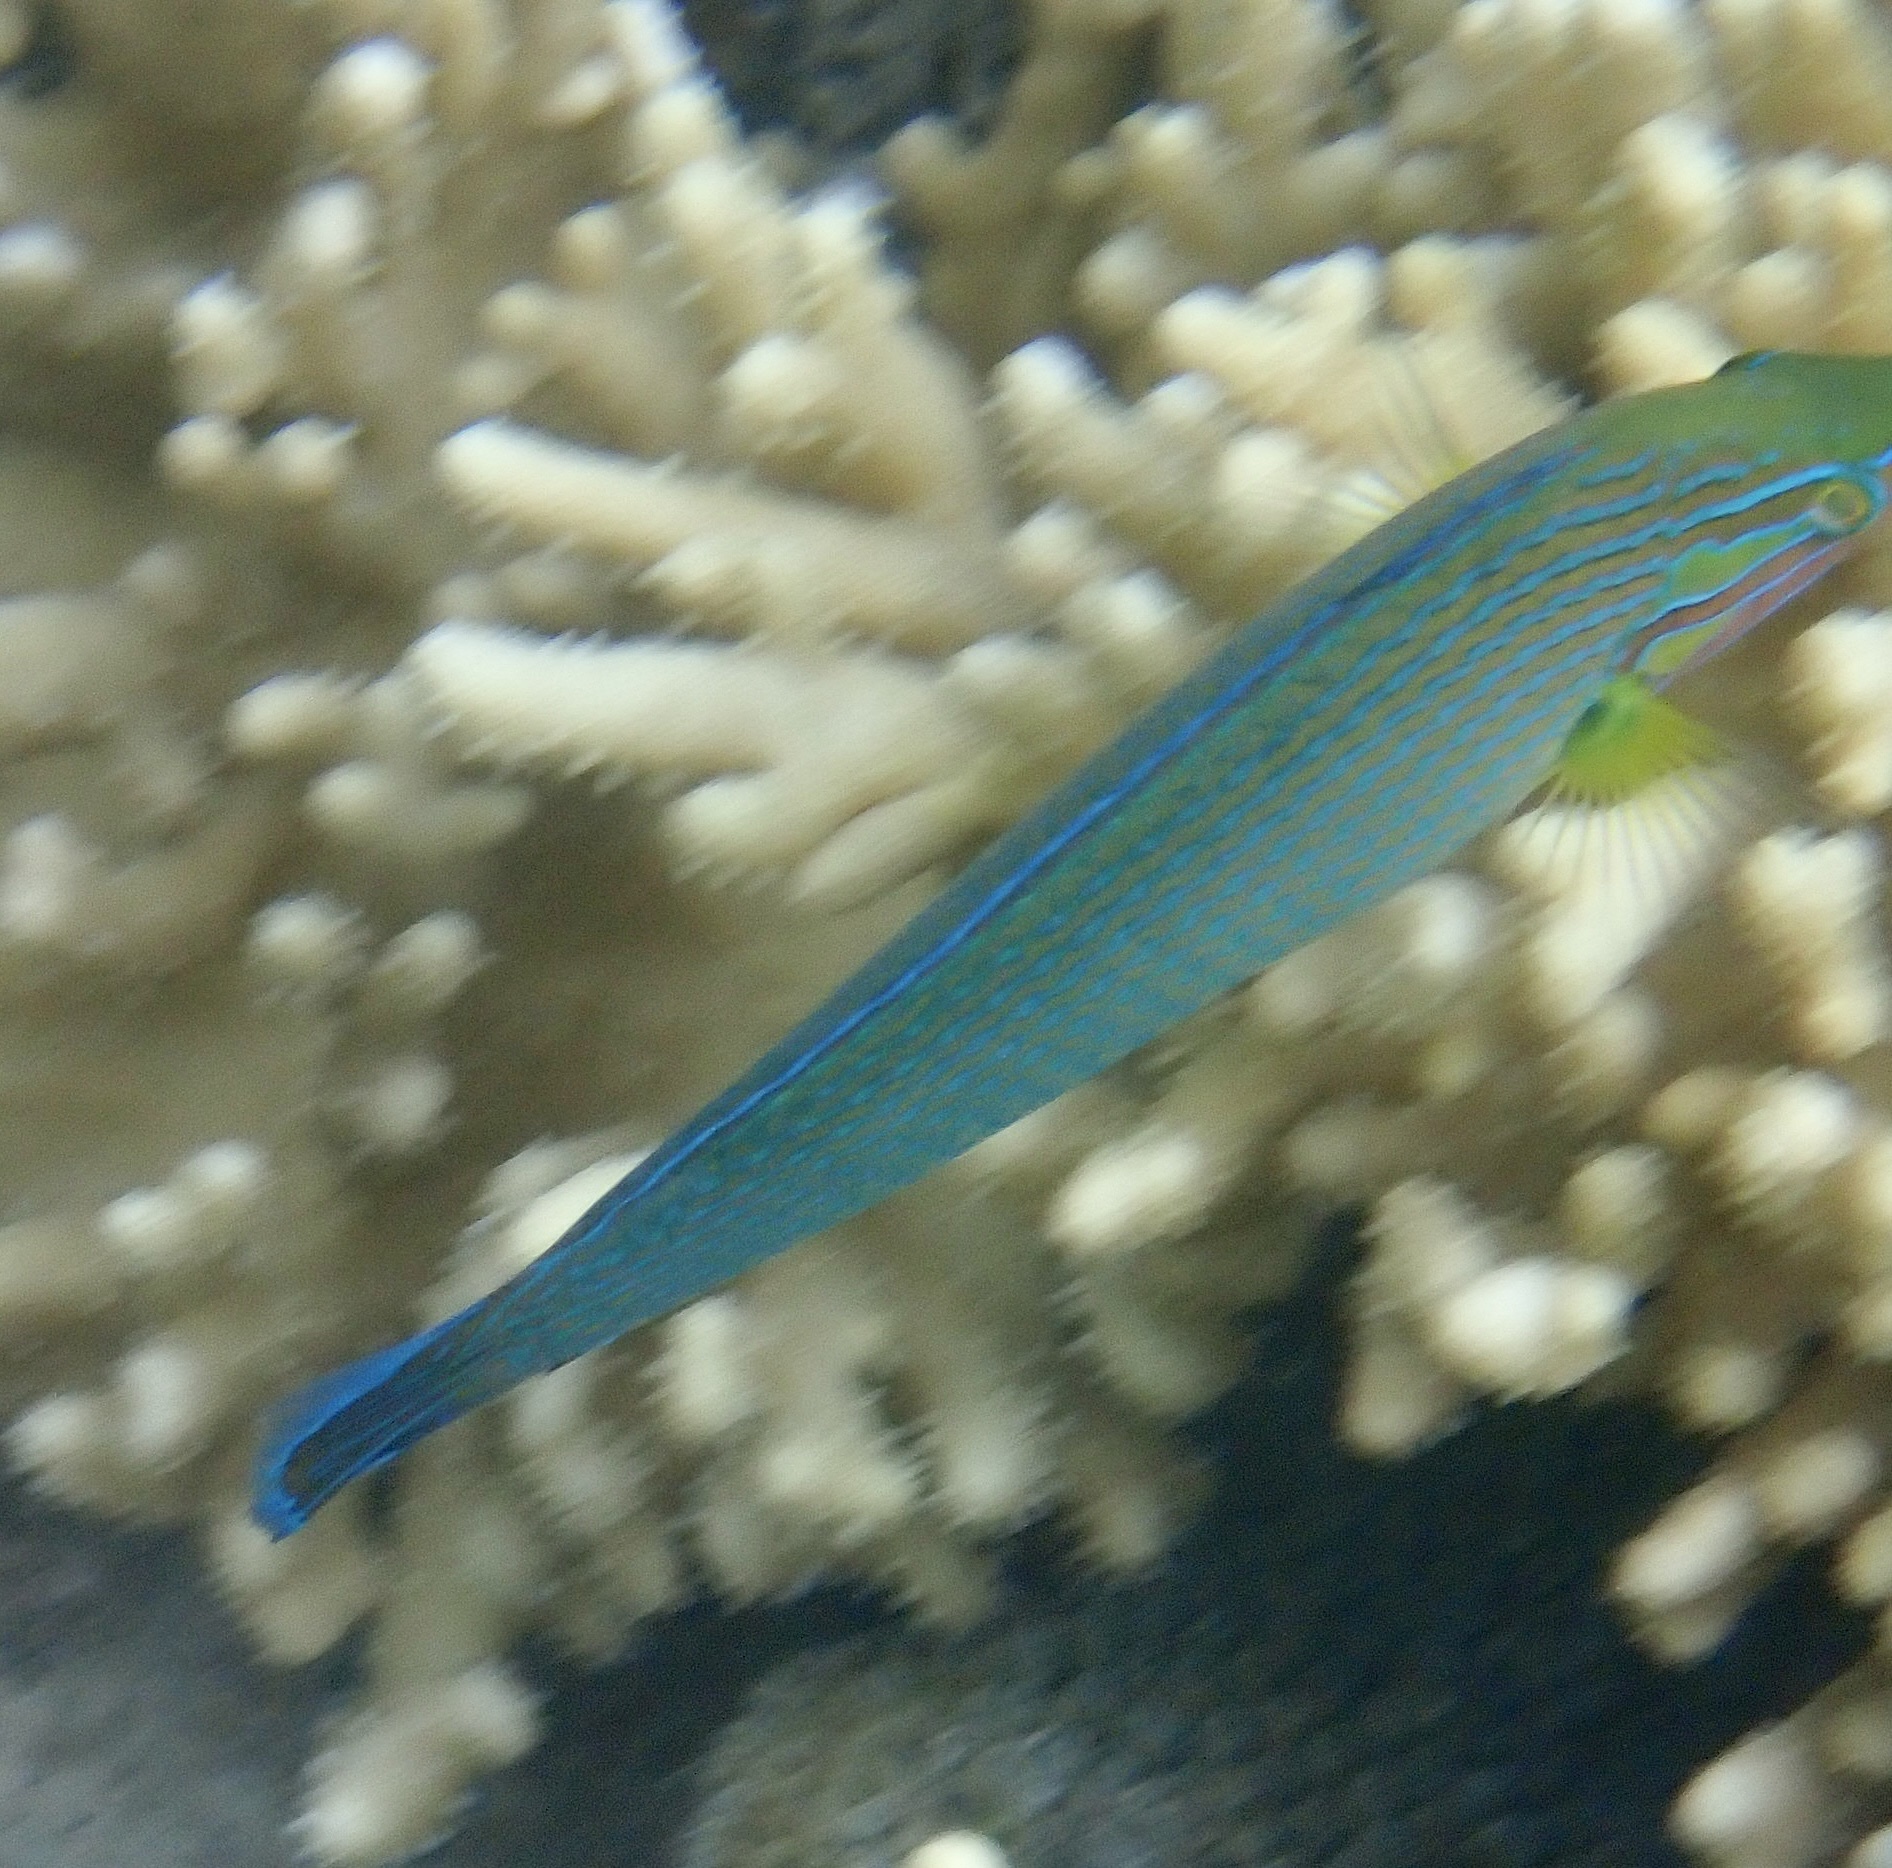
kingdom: Animalia
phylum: Chordata
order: Perciformes
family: Labridae
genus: Halichoeres
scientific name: Halichoeres richmondi
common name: Chain-lined wrasse
